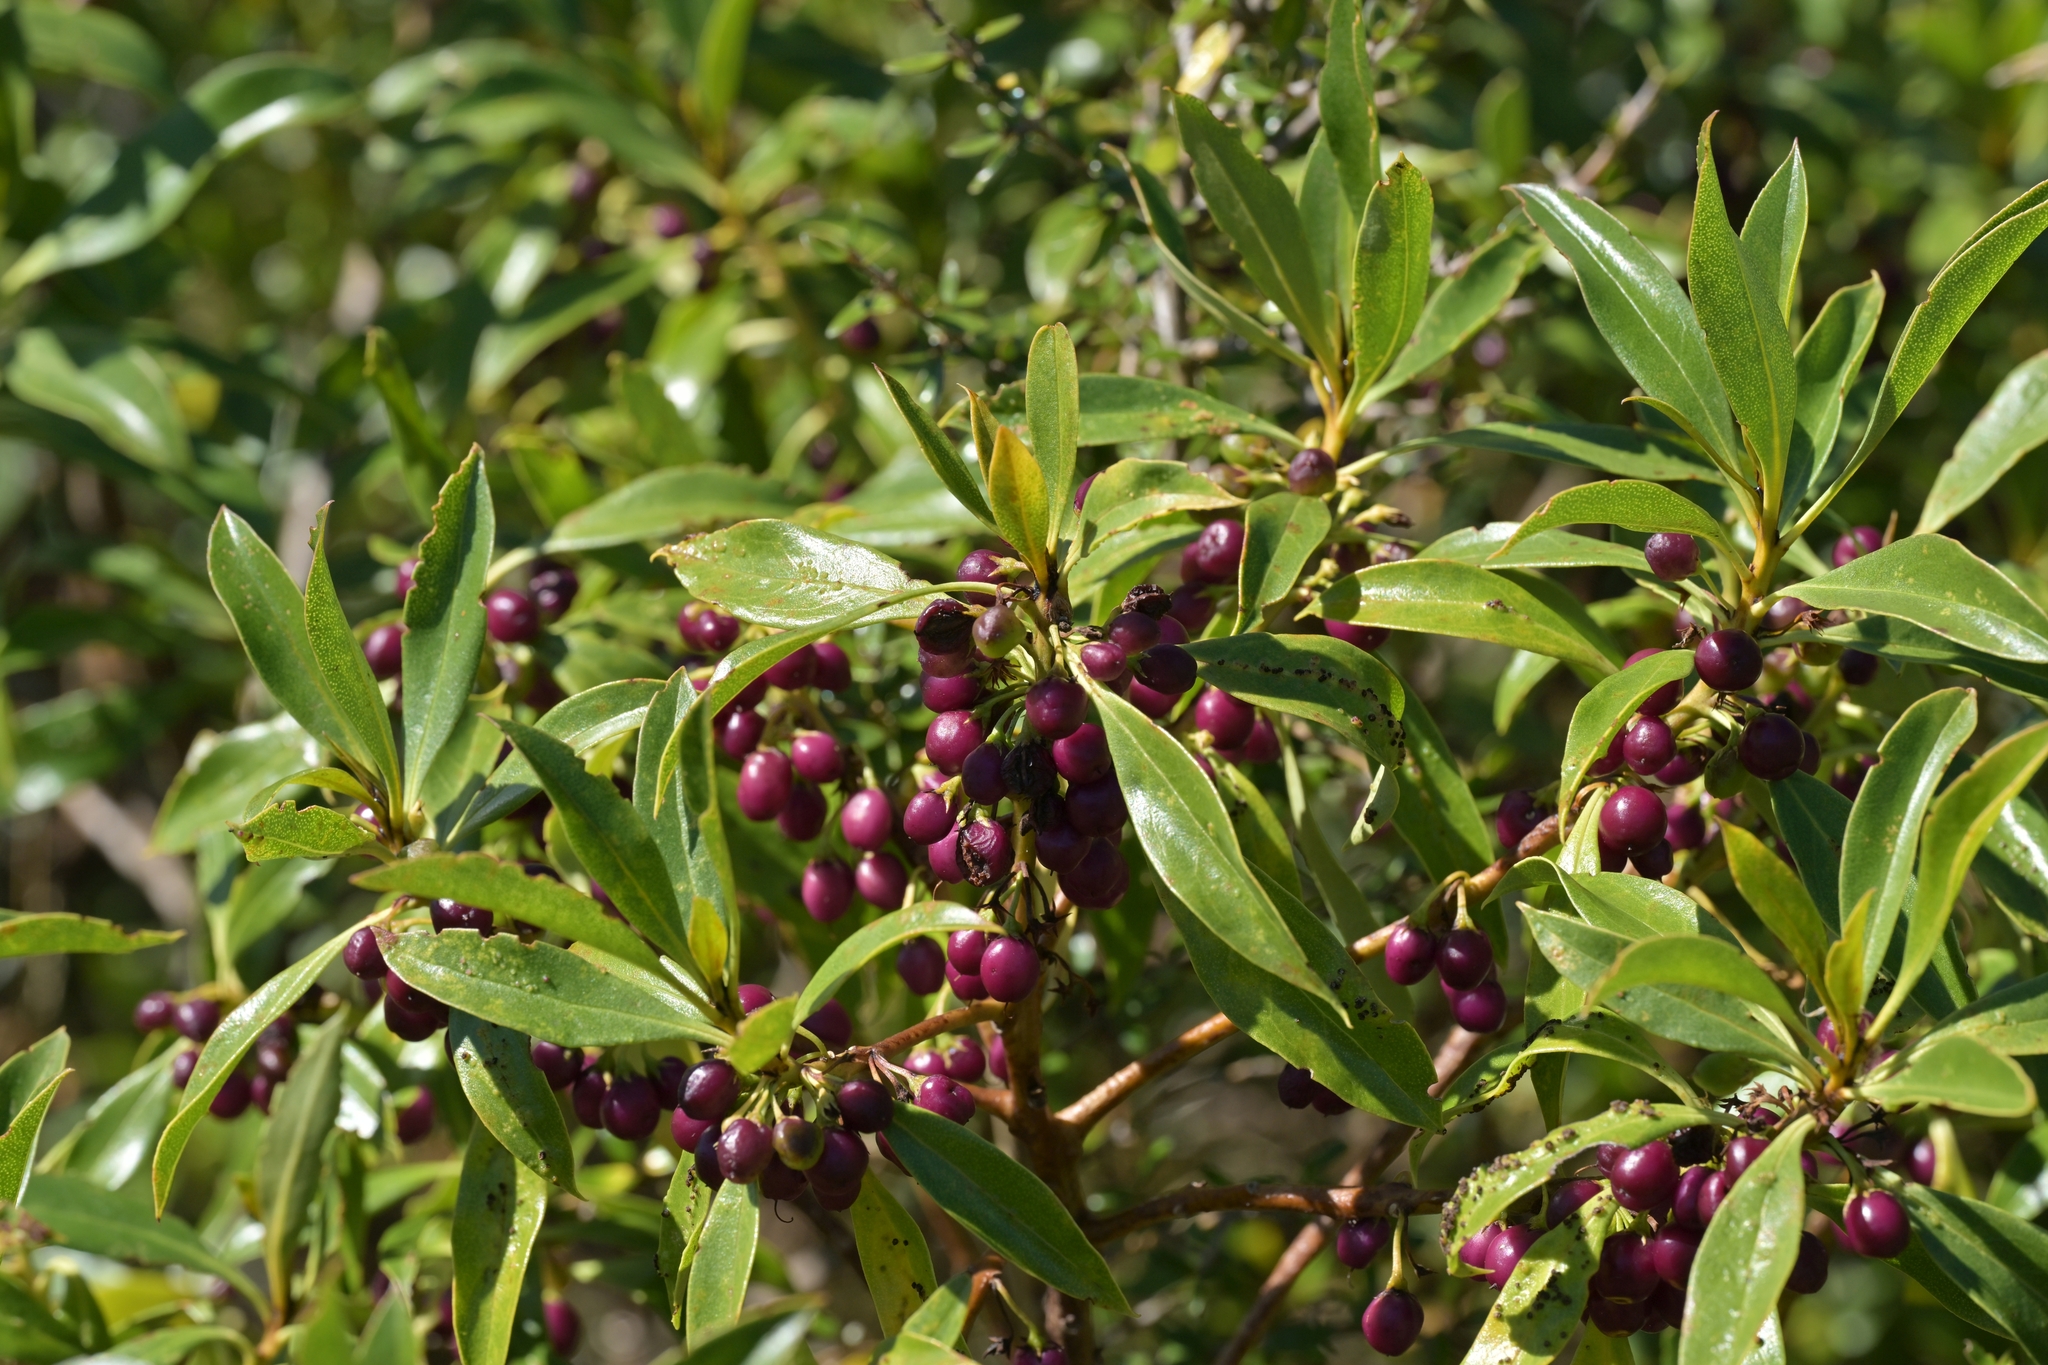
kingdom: Plantae
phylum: Tracheophyta
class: Magnoliopsida
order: Lamiales
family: Scrophulariaceae
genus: Myoporum
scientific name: Myoporum laetum
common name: Ngaio tree
